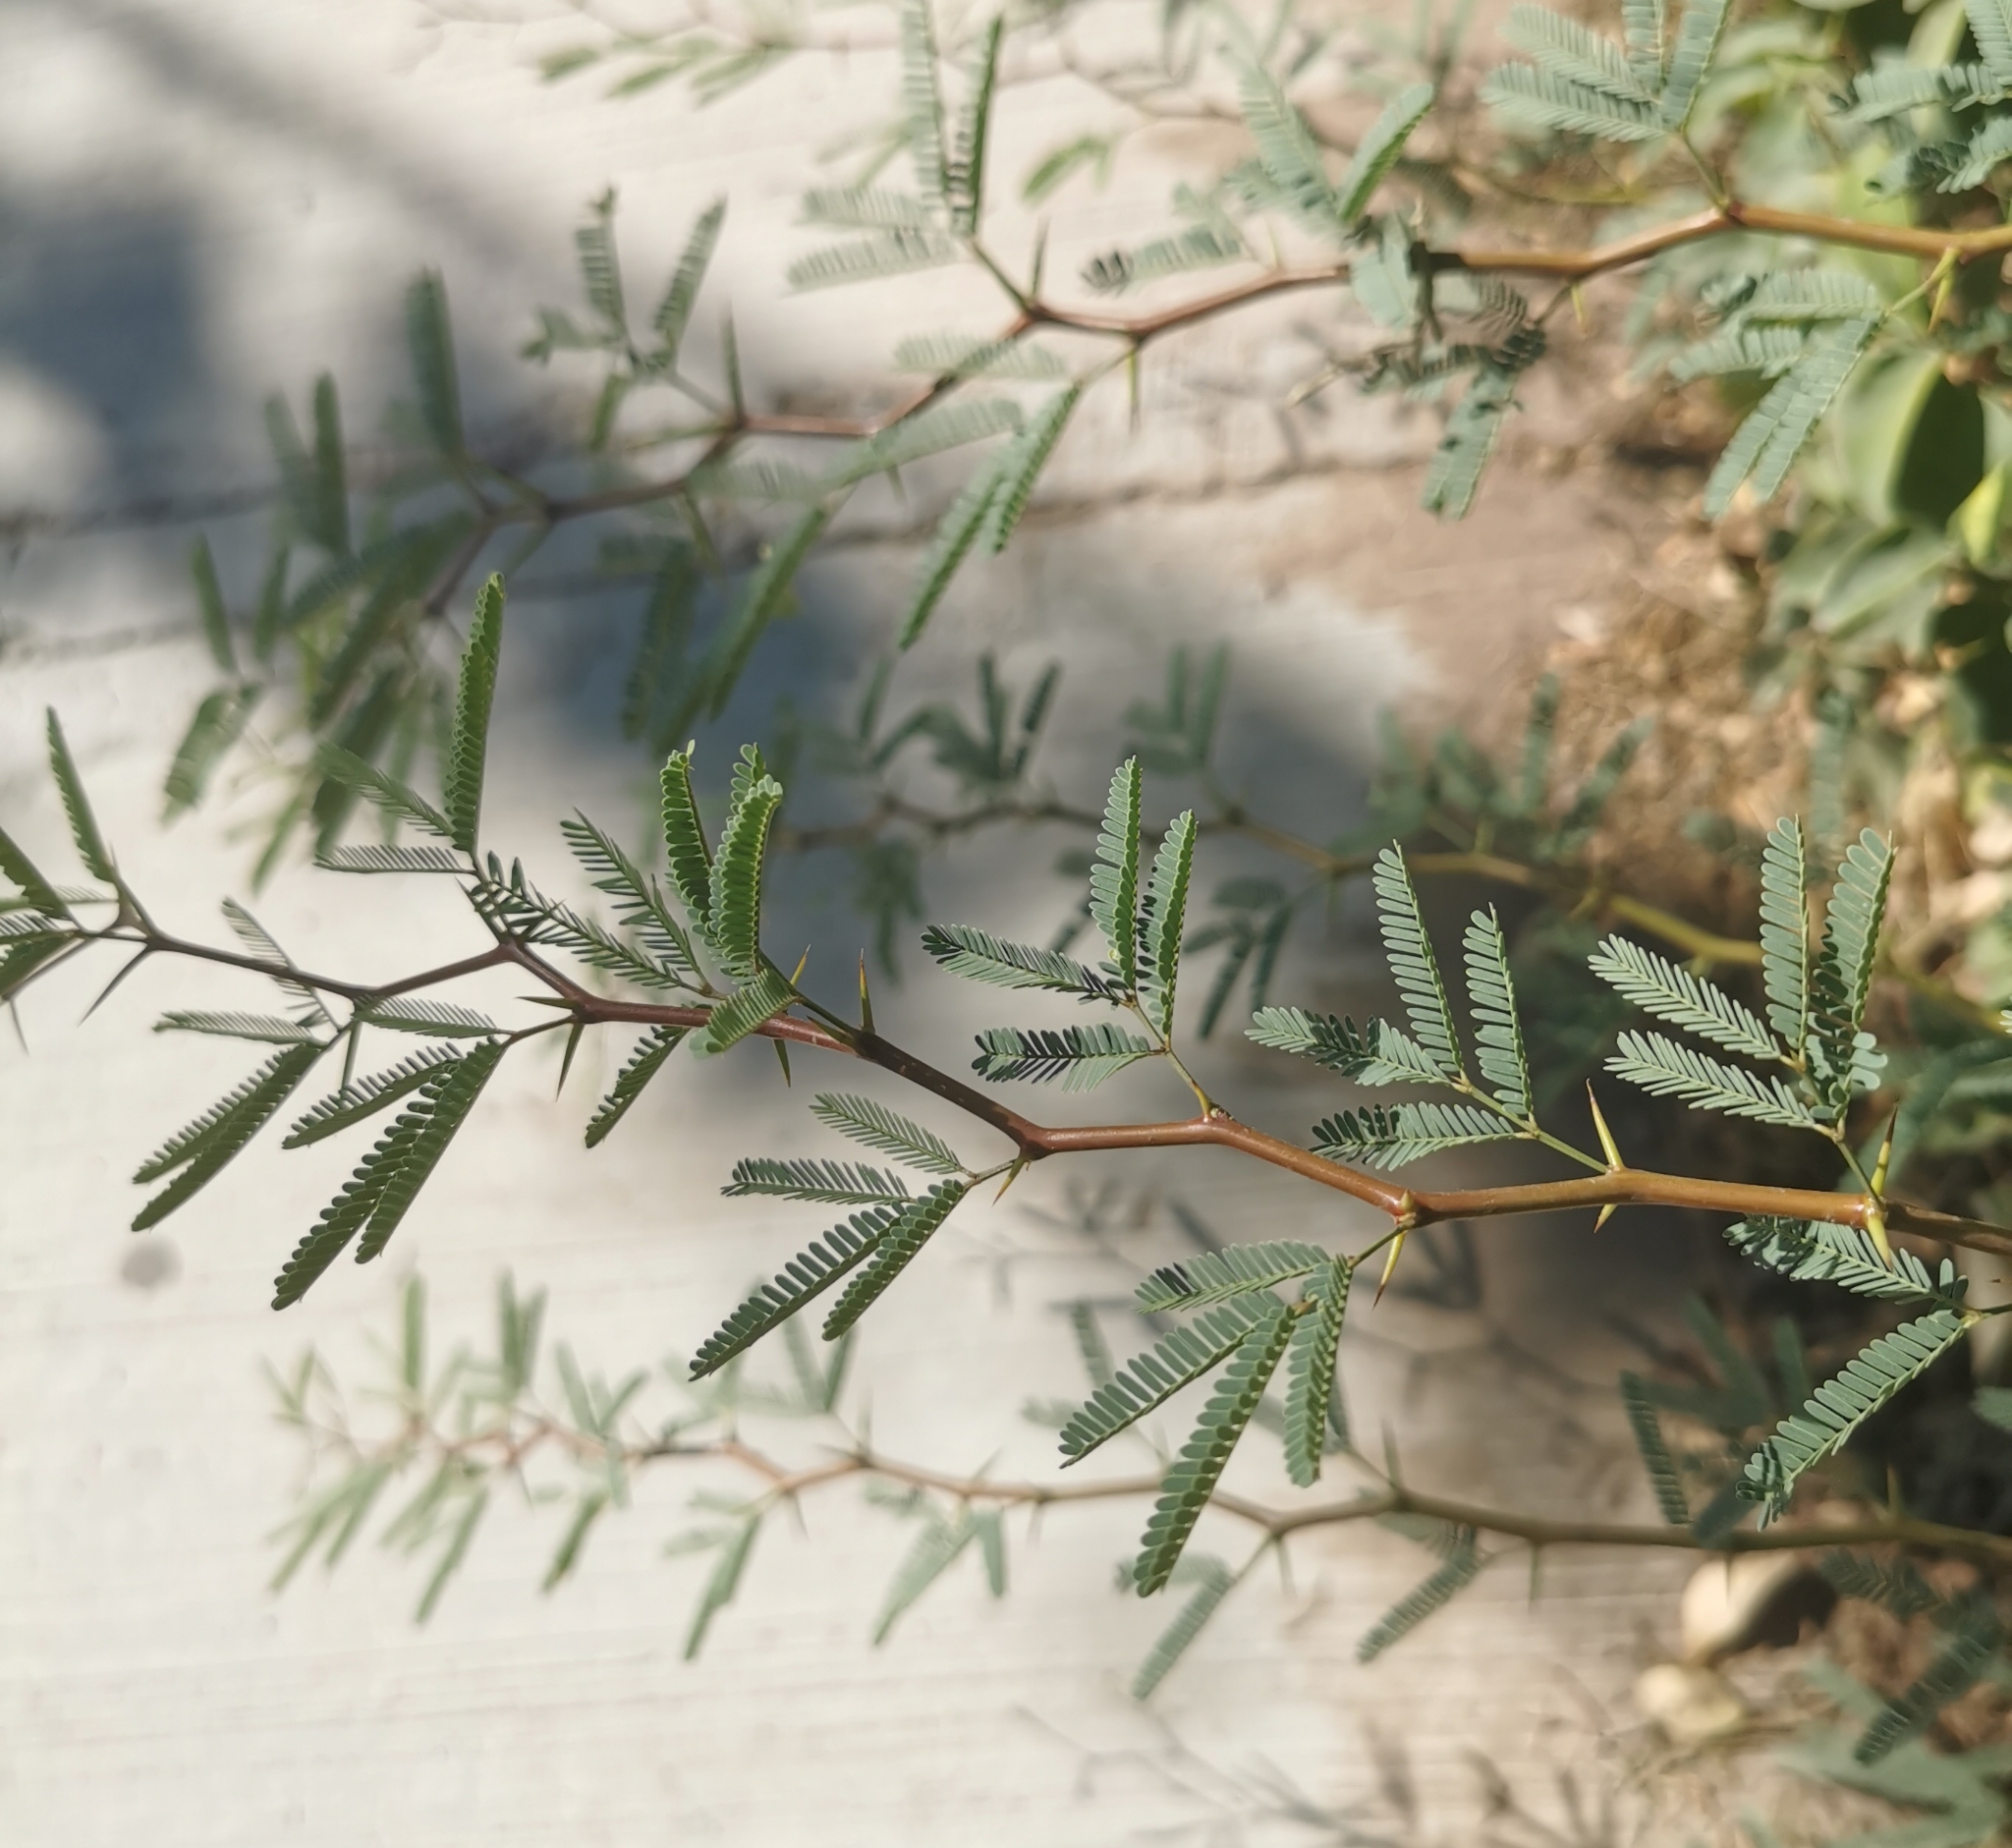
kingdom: Plantae
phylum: Tracheophyta
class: Magnoliopsida
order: Fabales
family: Fabaceae
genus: Prosopis
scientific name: Prosopis laevigata
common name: Smooth mesquite
